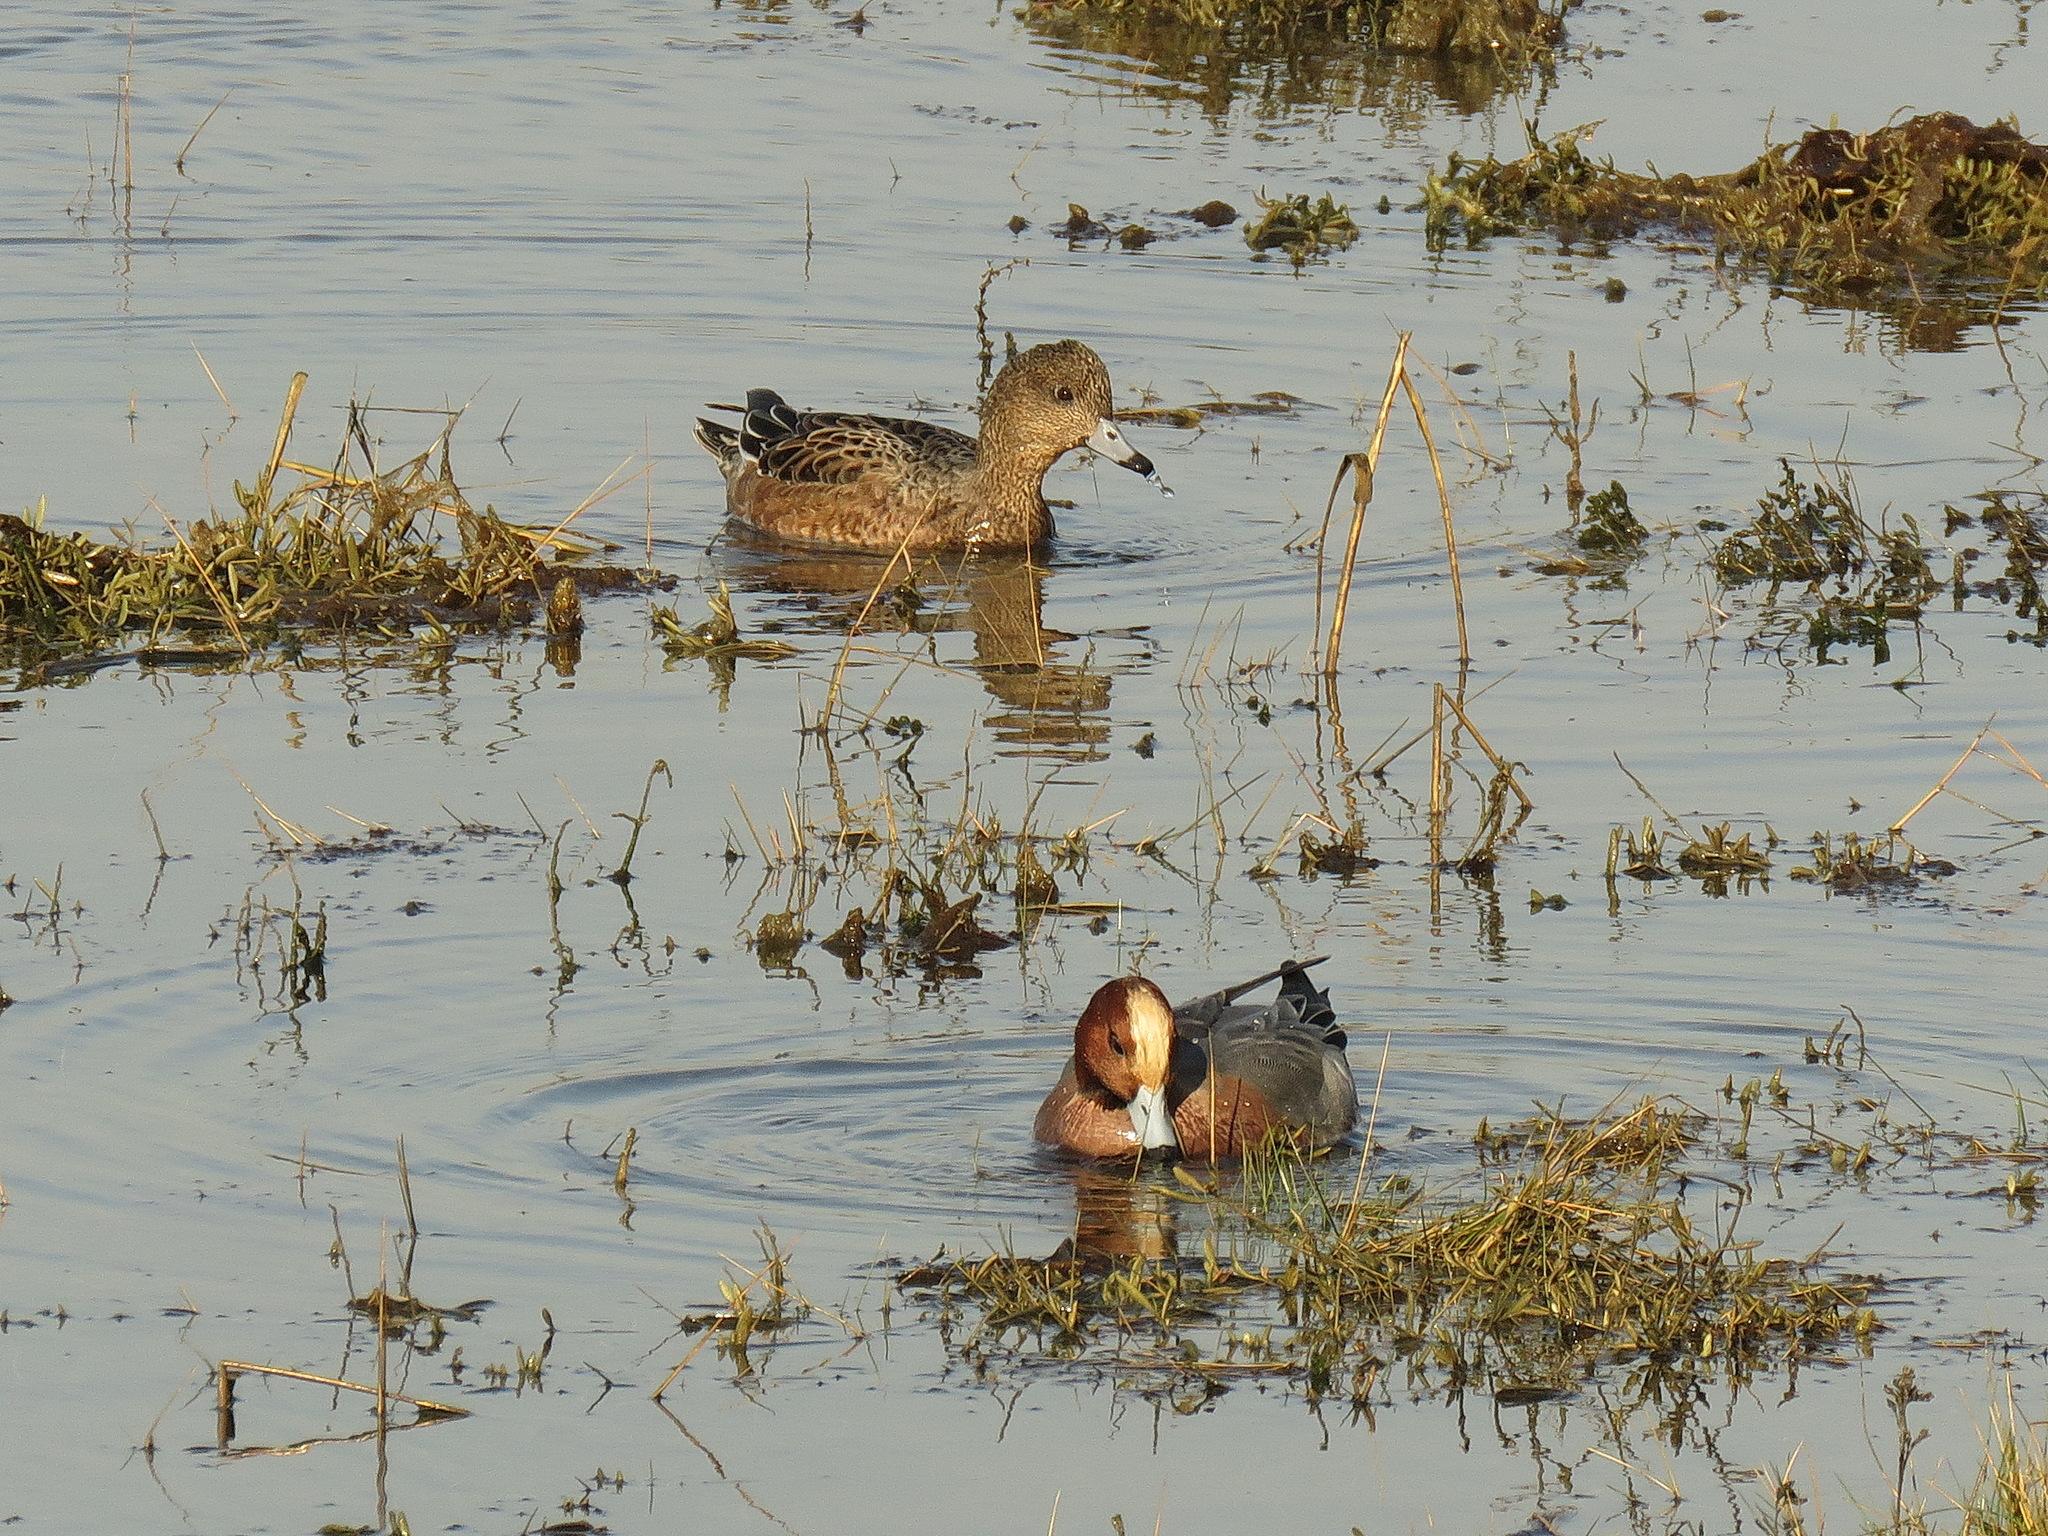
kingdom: Animalia
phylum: Chordata
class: Aves
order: Anseriformes
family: Anatidae
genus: Mareca
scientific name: Mareca penelope
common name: Eurasian wigeon
